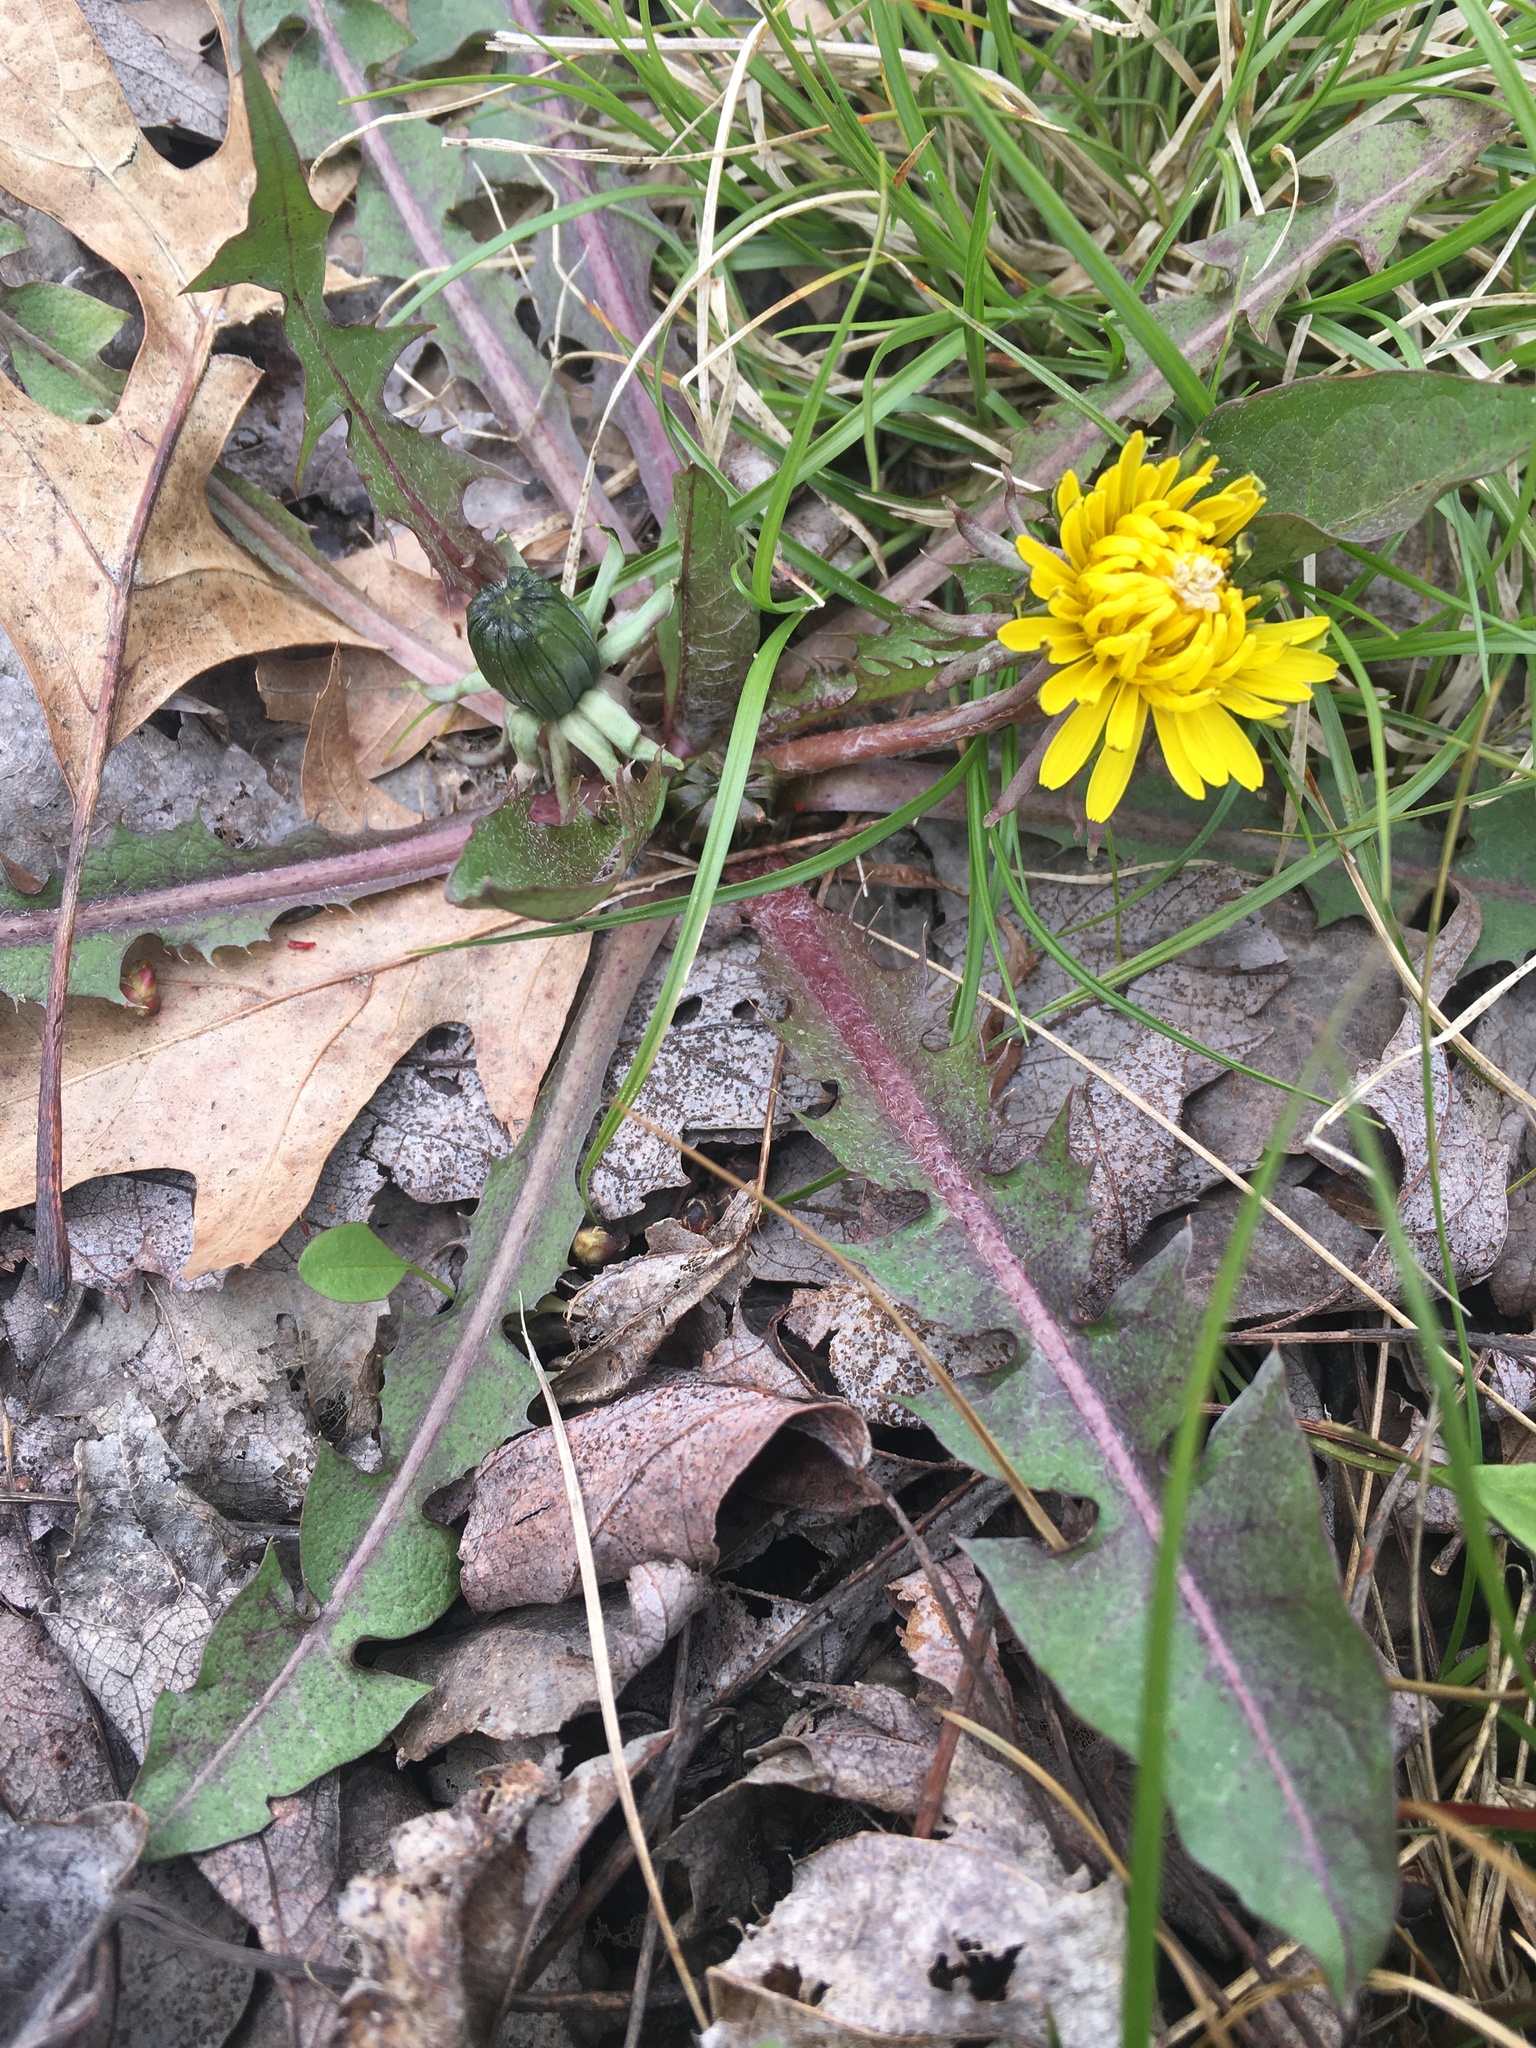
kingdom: Plantae
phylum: Tracheophyta
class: Magnoliopsida
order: Asterales
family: Asteraceae
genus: Taraxacum
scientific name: Taraxacum officinale
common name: Common dandelion
